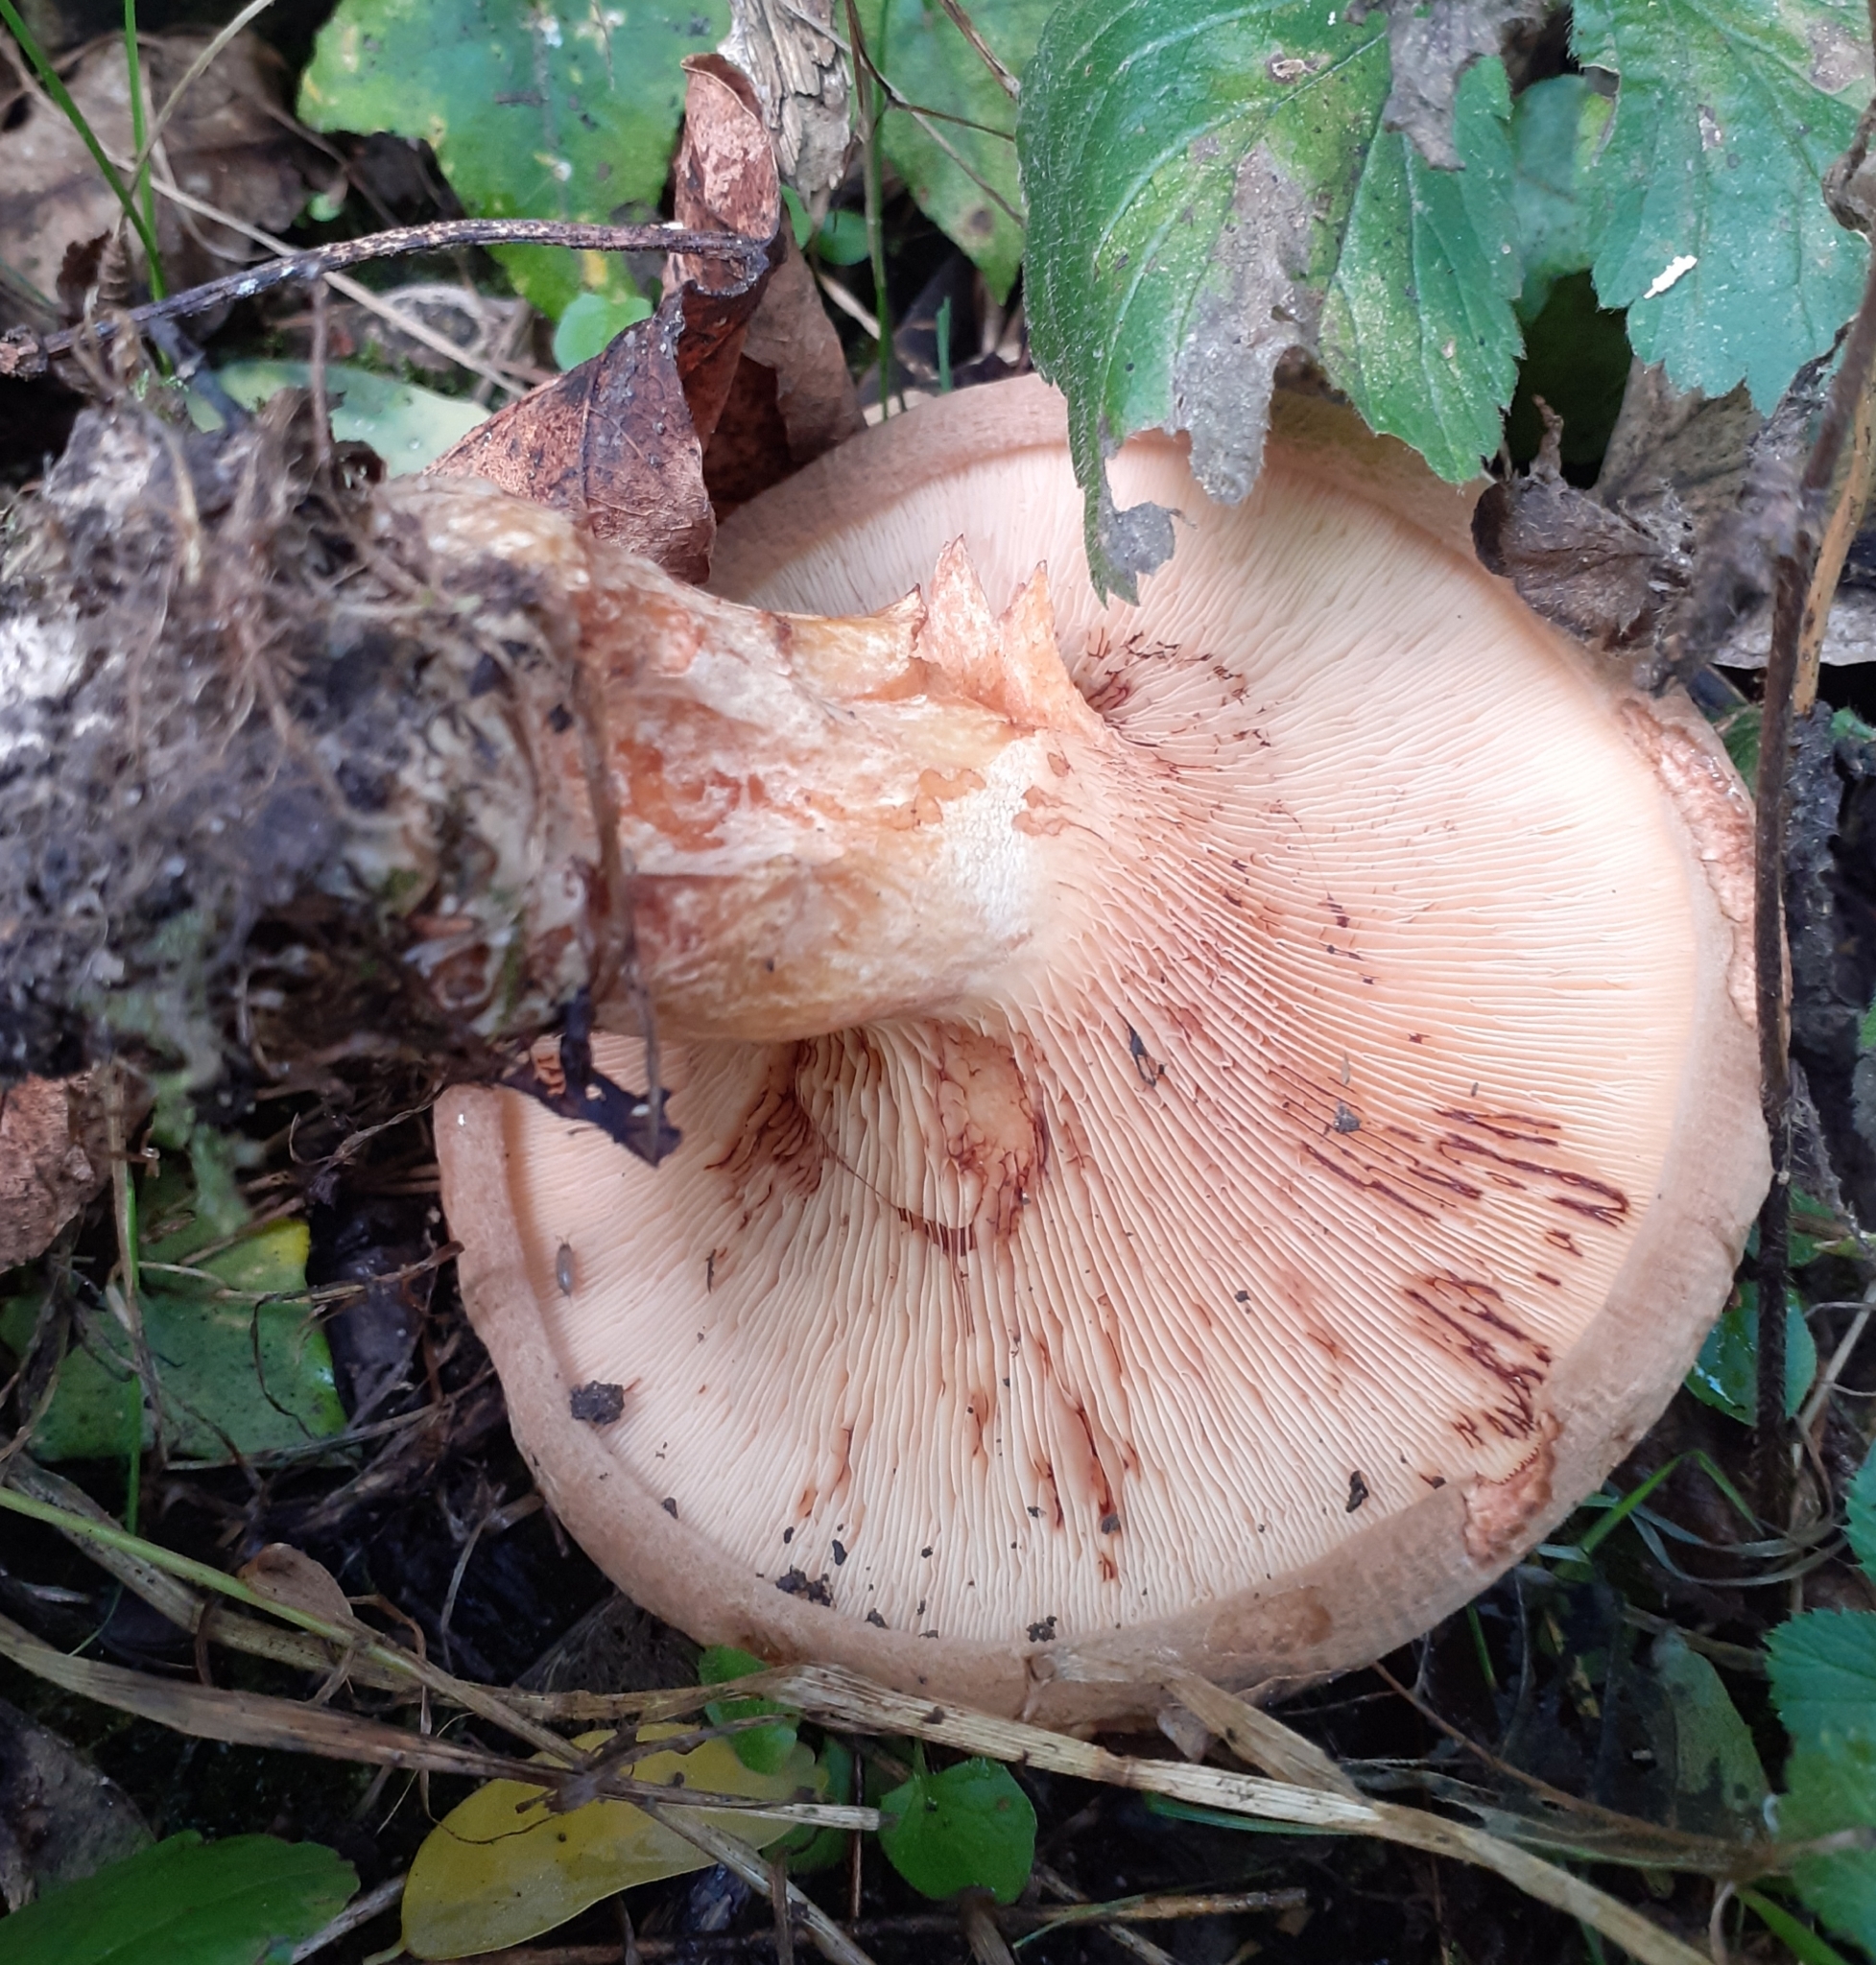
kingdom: Fungi
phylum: Basidiomycota
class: Agaricomycetes
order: Boletales
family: Paxillaceae
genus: Paxillus
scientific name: Paxillus involutus
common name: Brown roll rim
